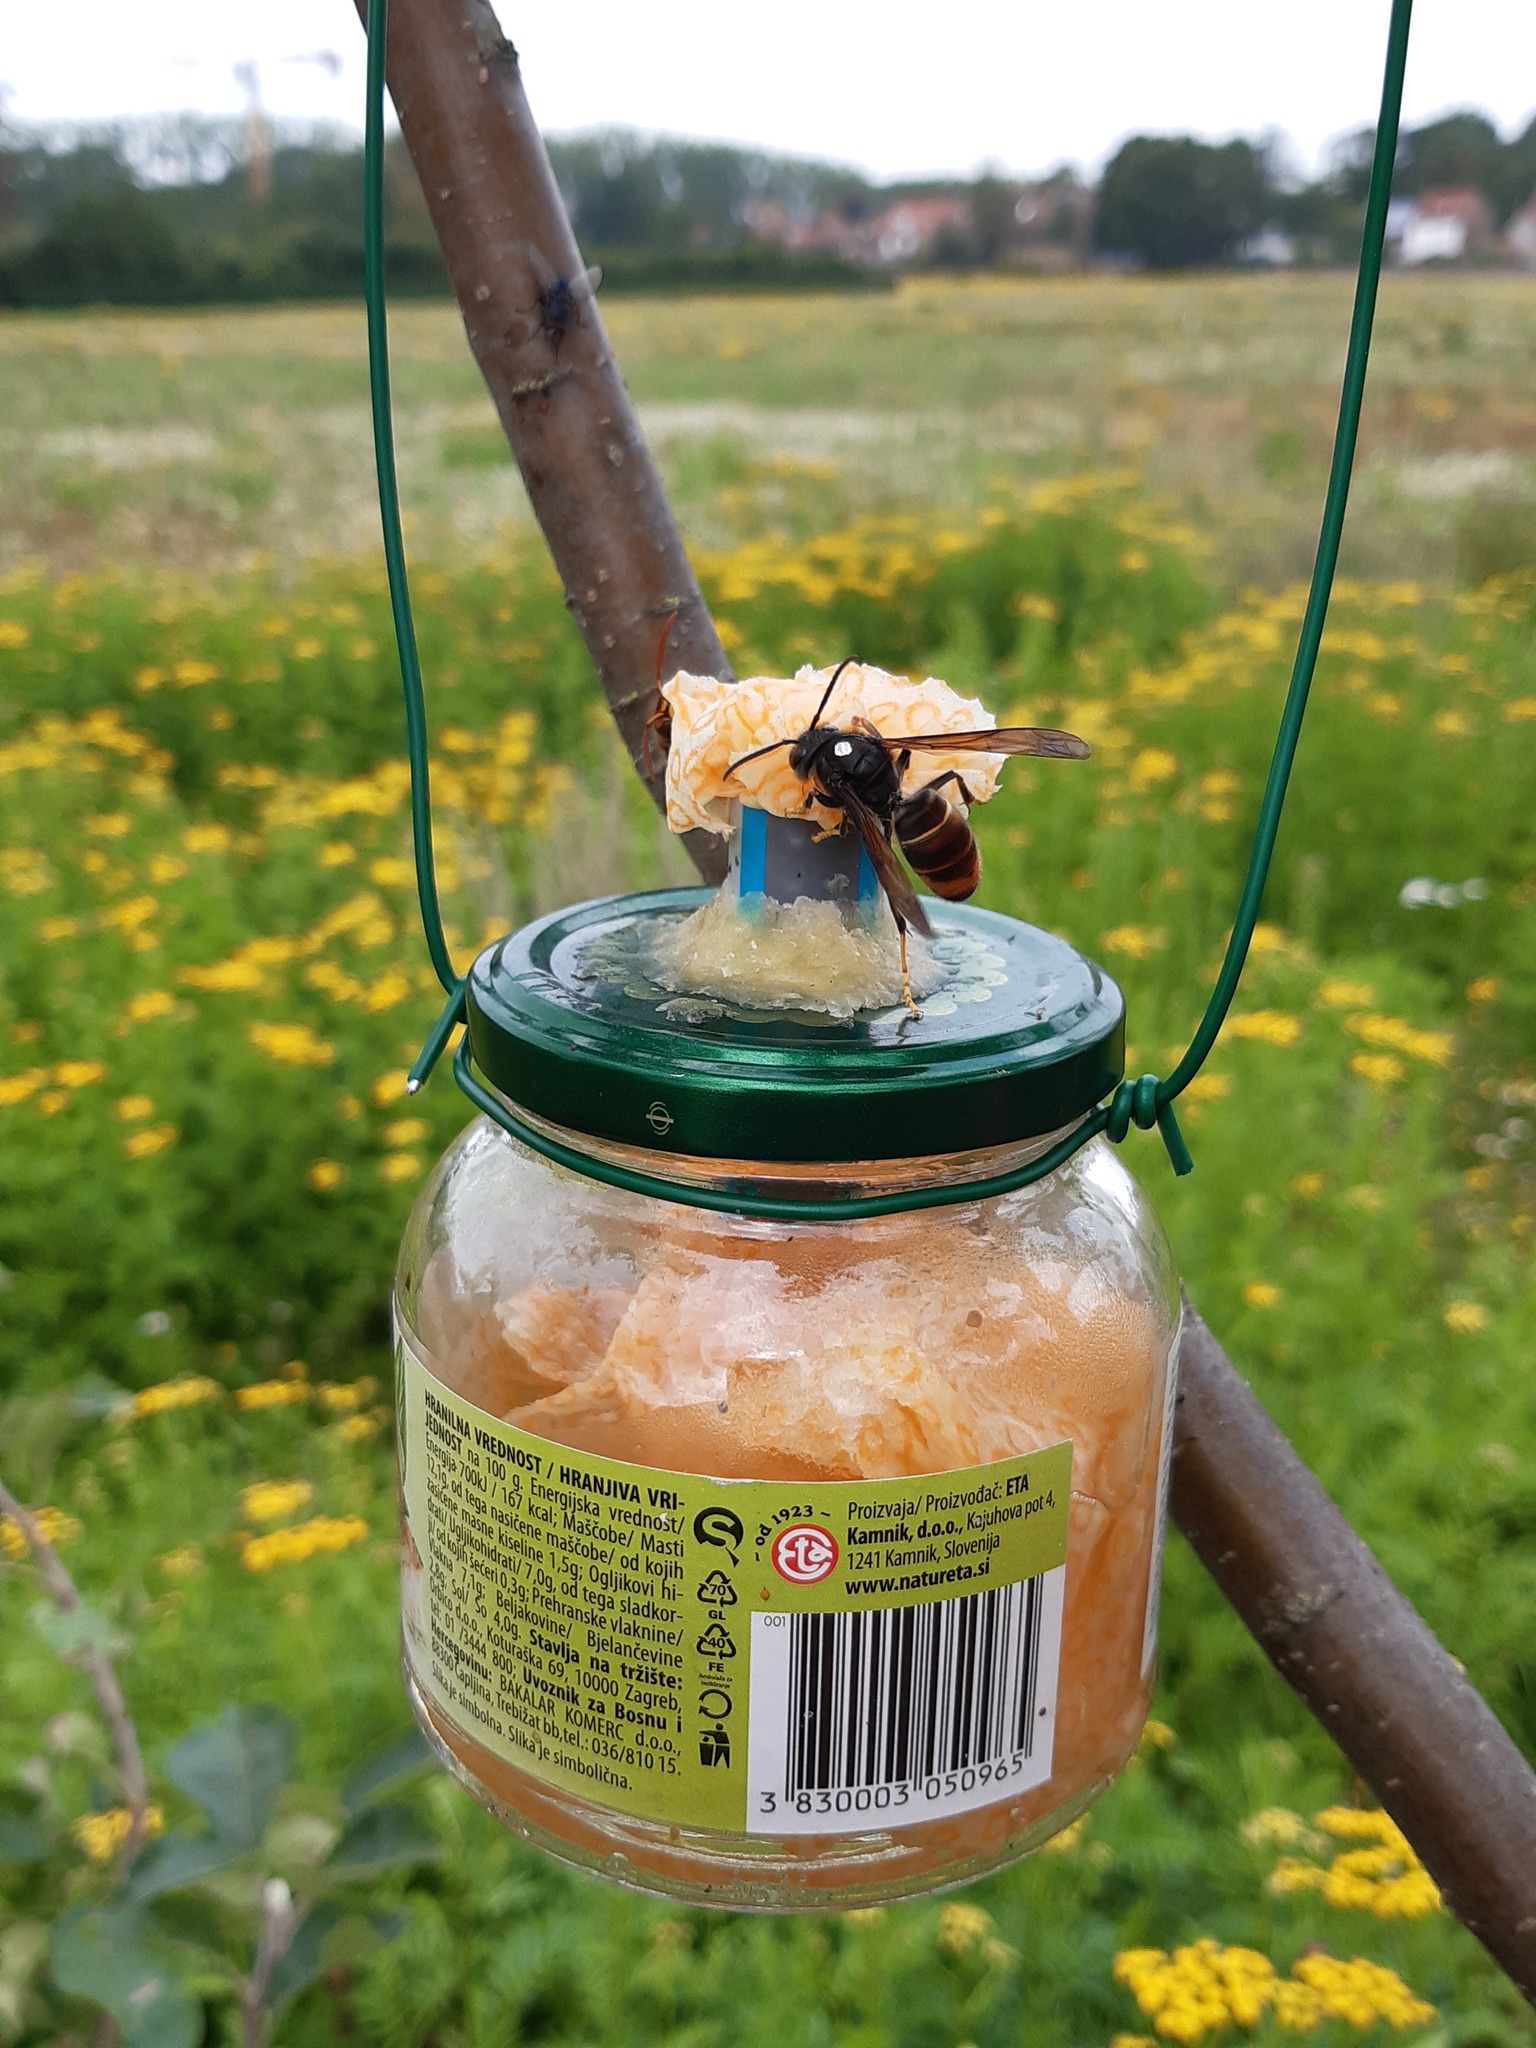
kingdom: Animalia
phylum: Arthropoda
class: Insecta
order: Hymenoptera
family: Vespidae
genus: Vespa
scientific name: Vespa velutina
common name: Asian hornet
